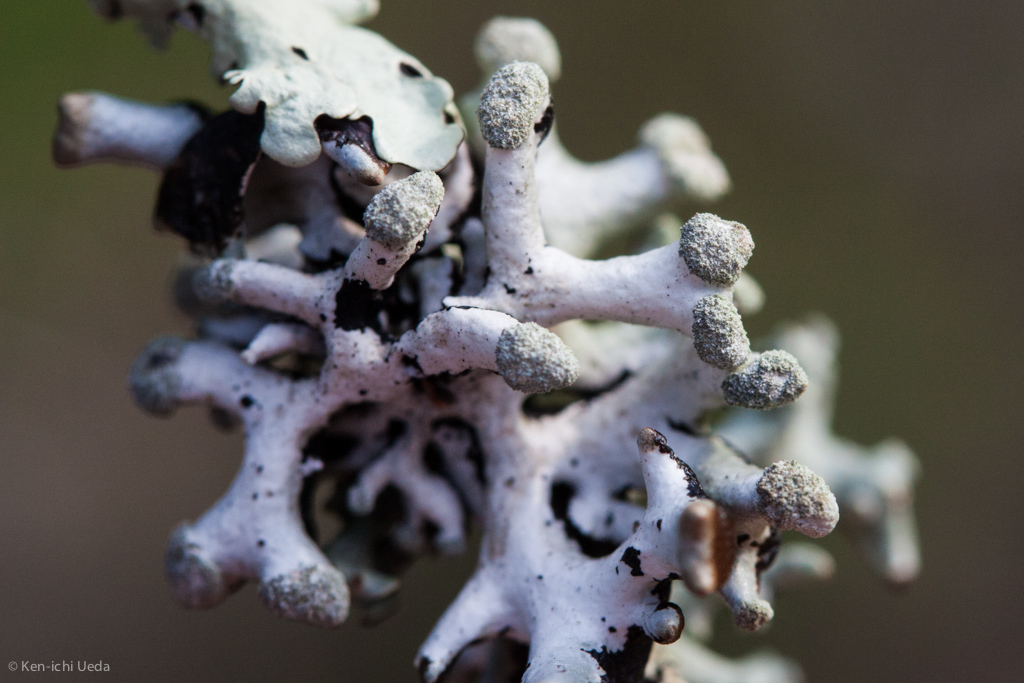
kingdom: Fungi
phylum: Ascomycota
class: Lecanoromycetes
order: Lecanorales
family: Parmeliaceae
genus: Hypogymnia
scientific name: Hypogymnia tubulosa
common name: Powder-headed tube lichen
